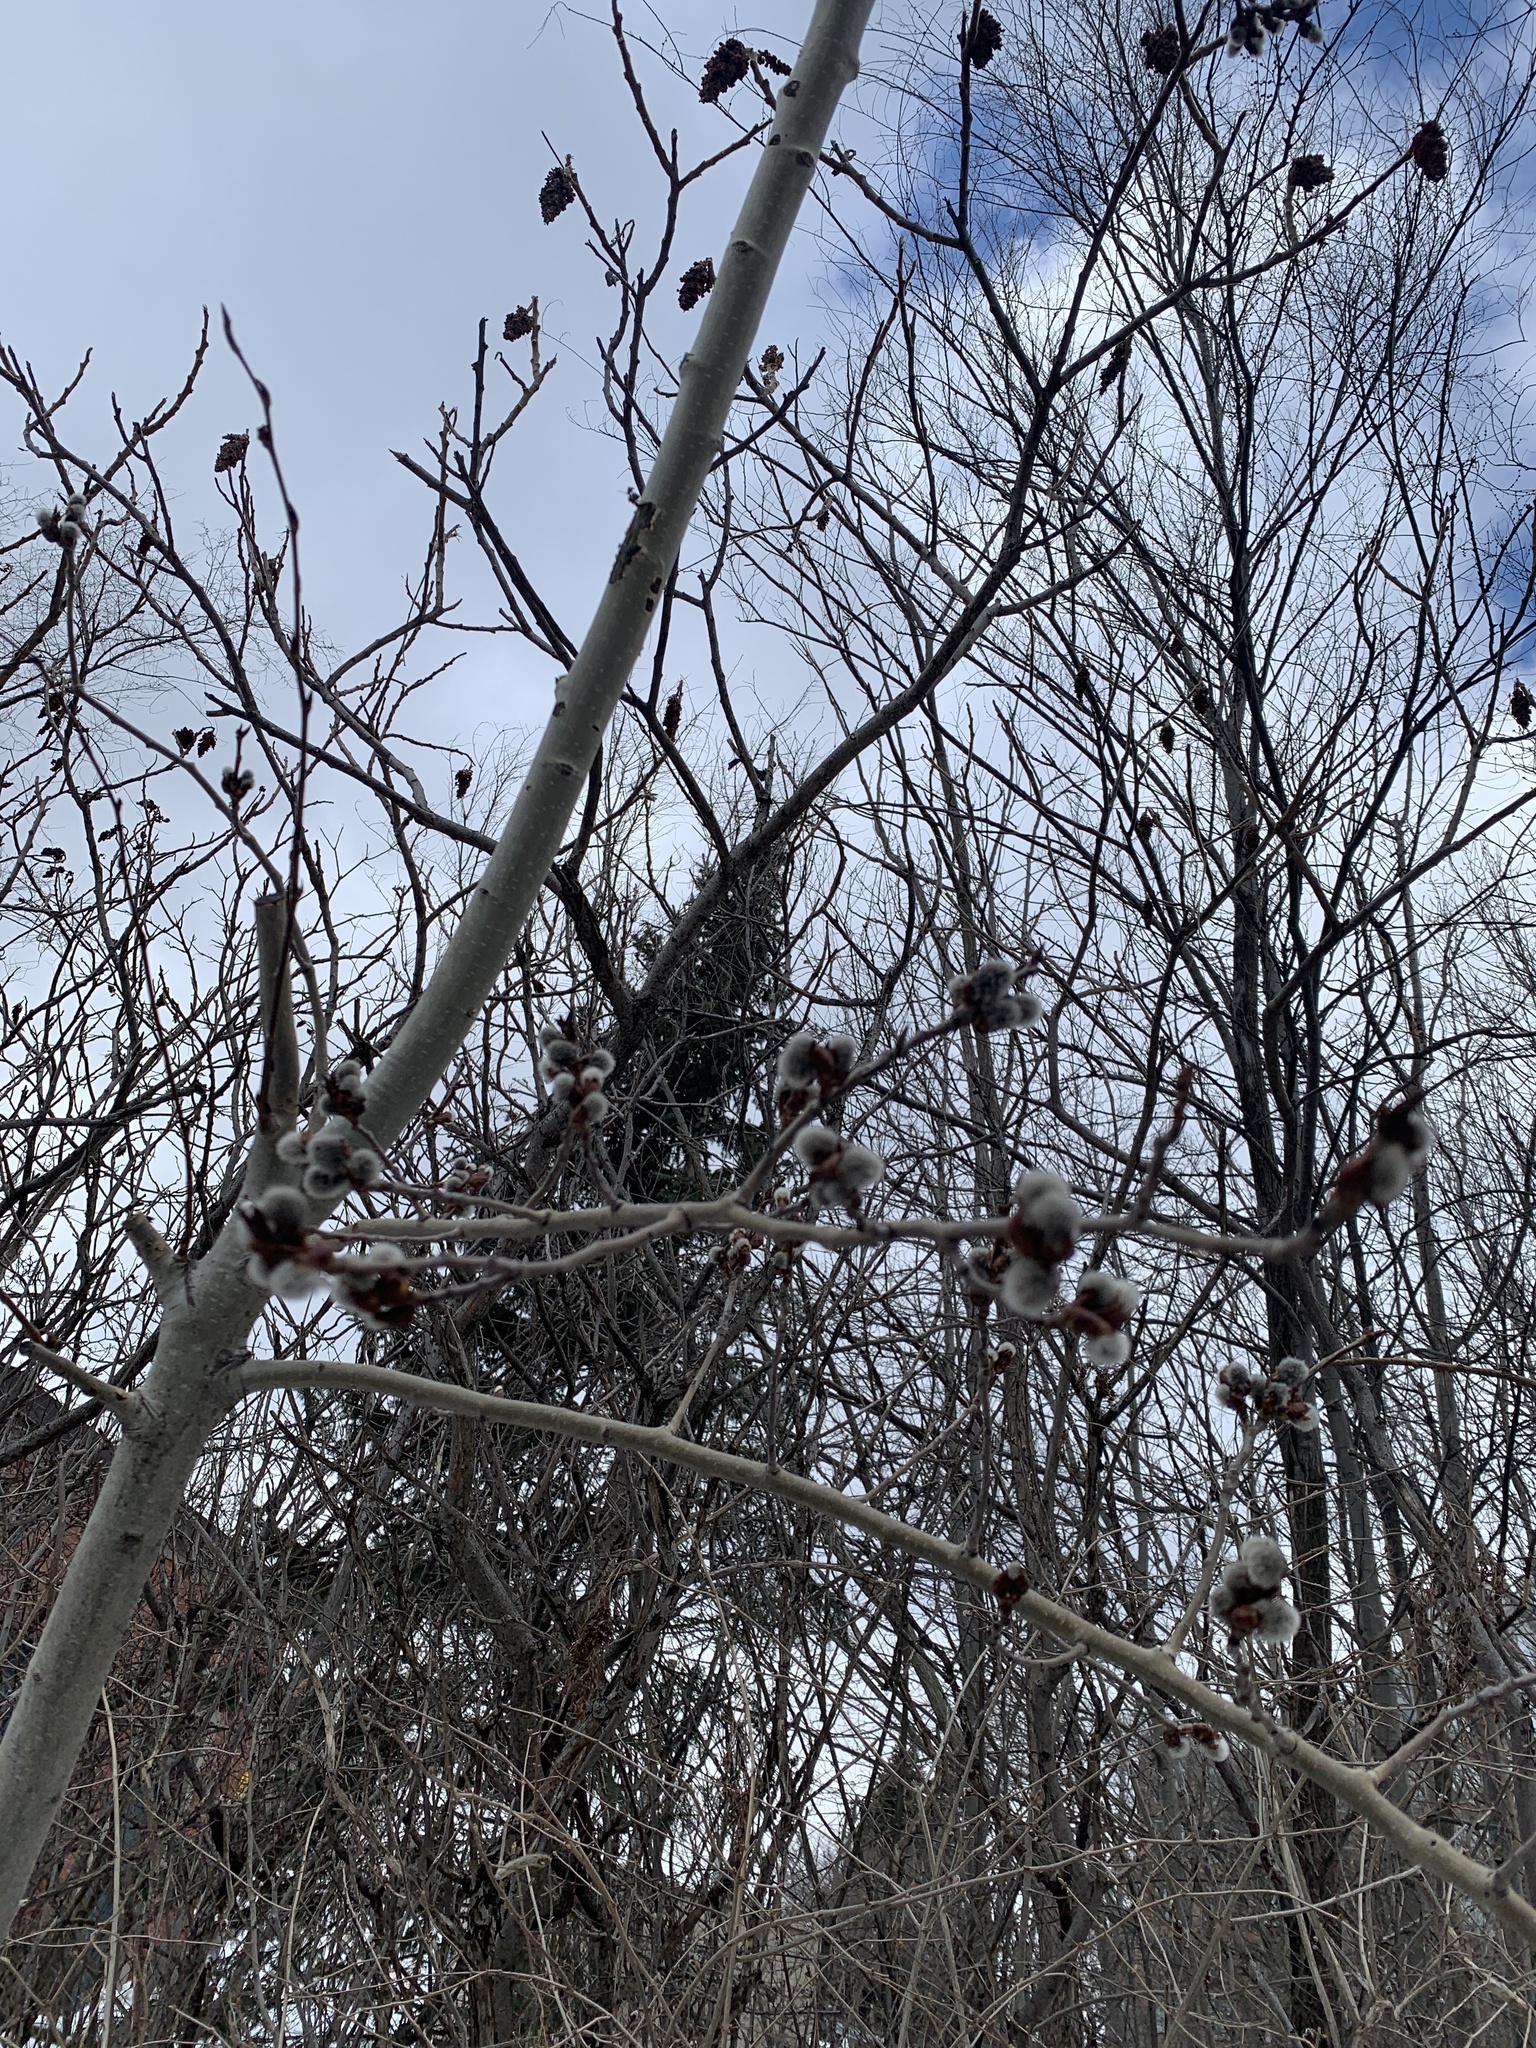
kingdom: Plantae
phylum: Tracheophyta
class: Magnoliopsida
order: Malpighiales
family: Salicaceae
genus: Populus
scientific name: Populus tremuloides
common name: Quaking aspen
